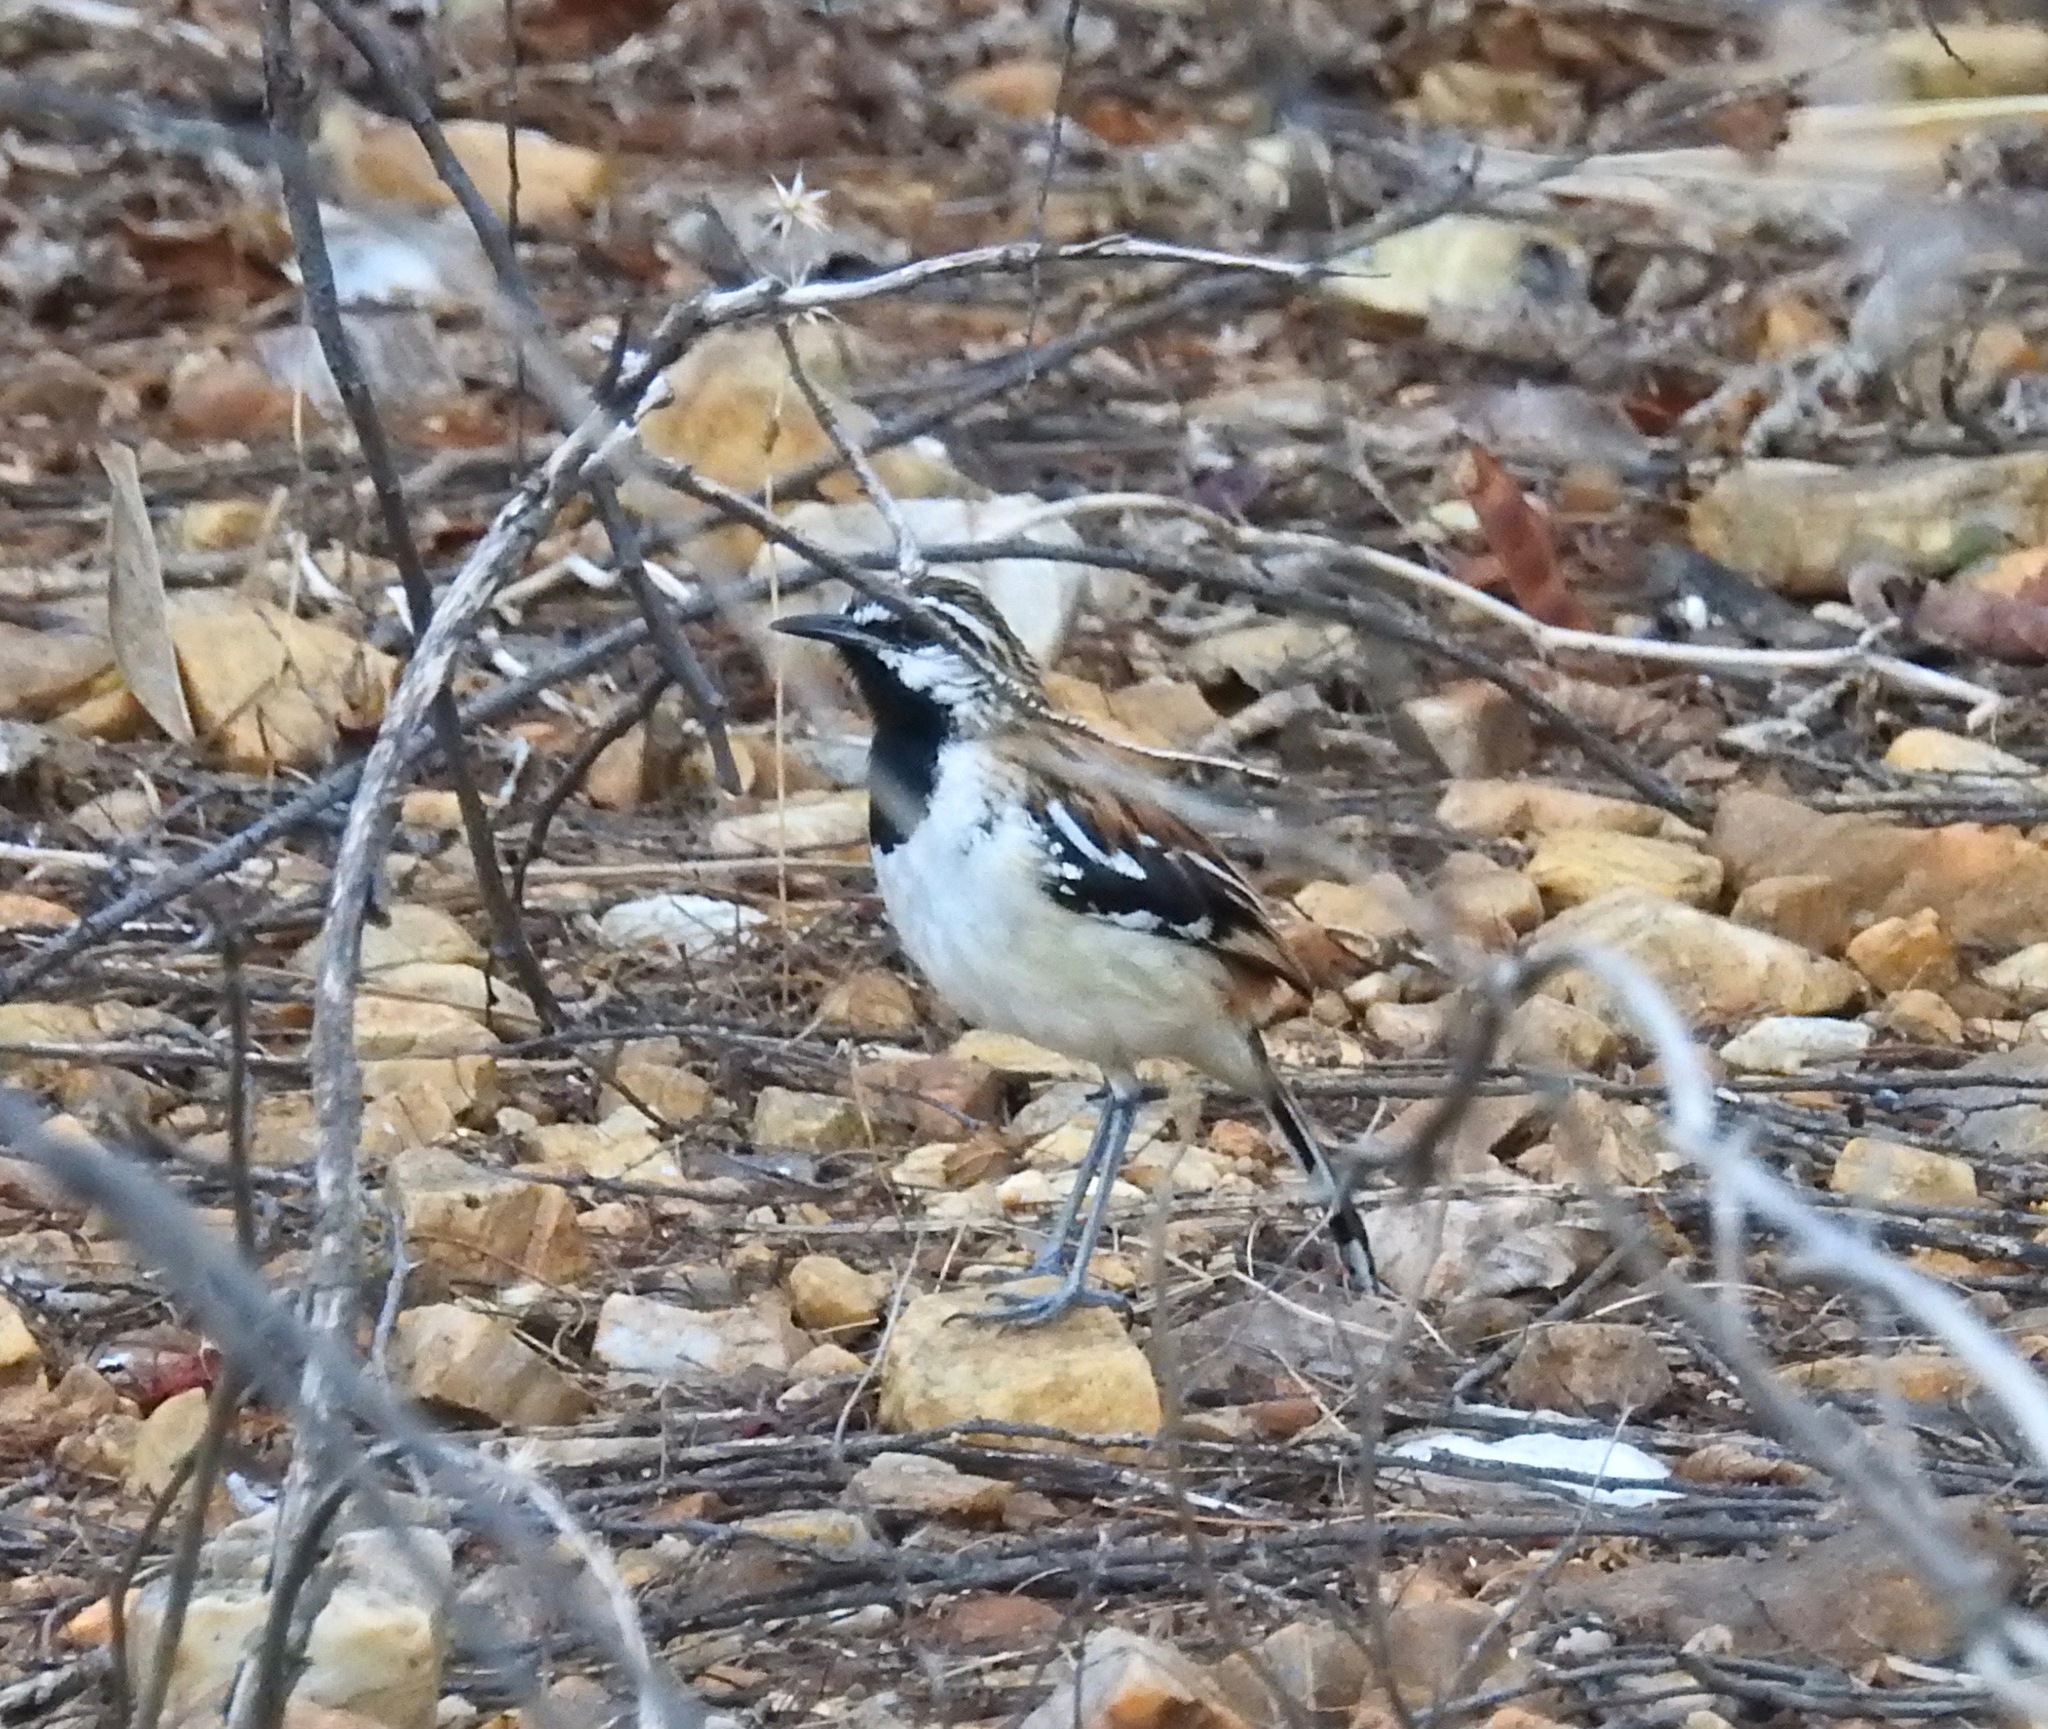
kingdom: Animalia
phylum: Chordata
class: Aves
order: Passeriformes
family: Thamnophilidae
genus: Myrmorchilus
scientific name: Myrmorchilus strigilatus
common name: Stripe-backed antbird
